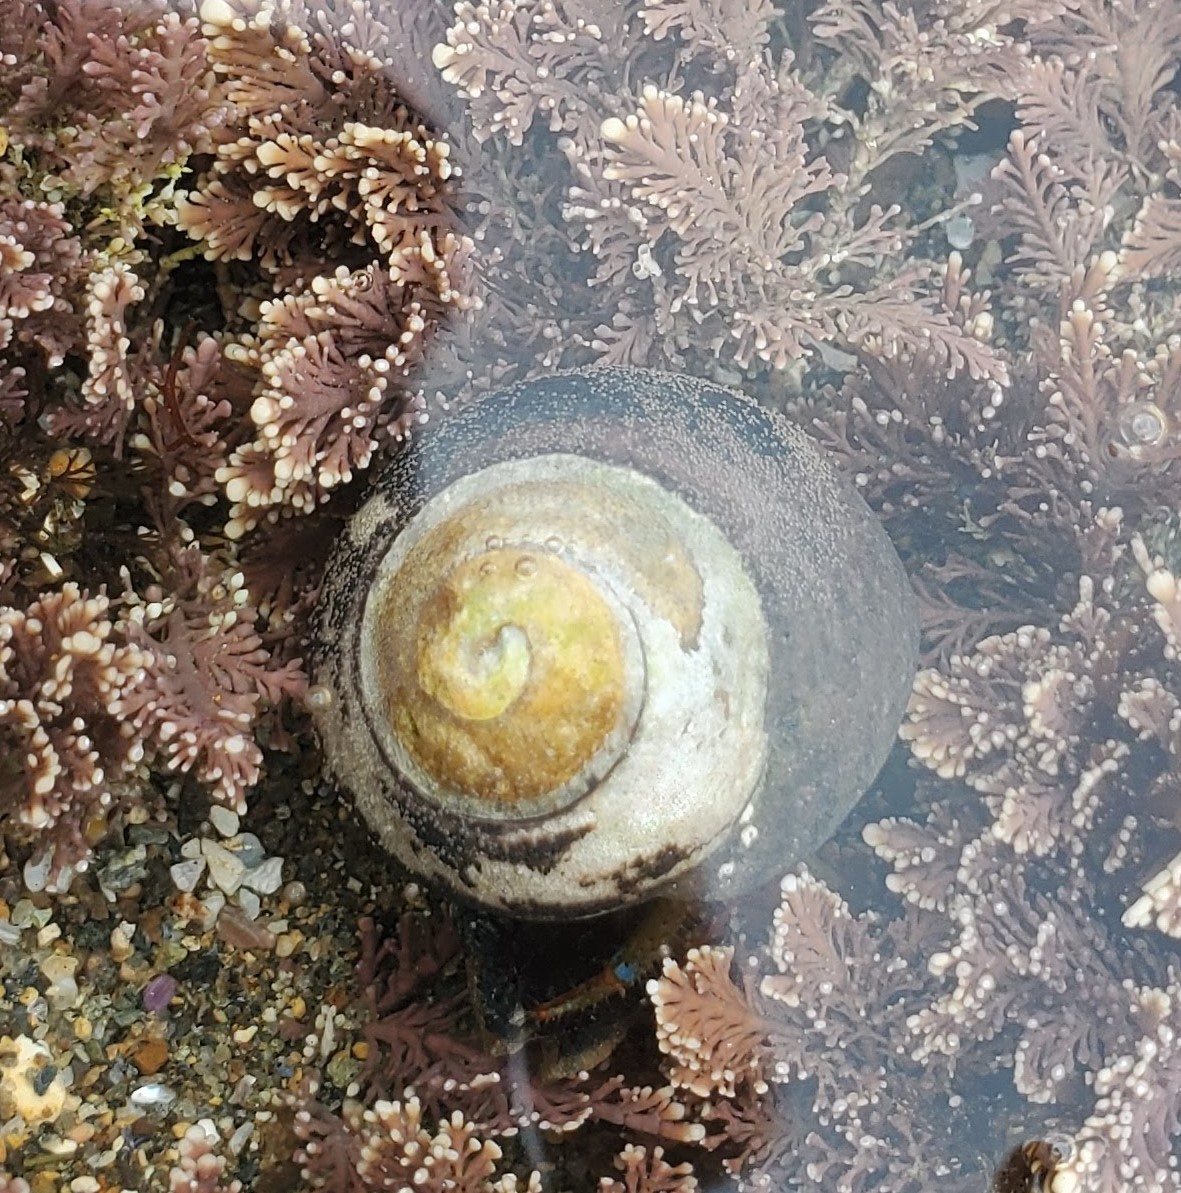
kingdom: Animalia
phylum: Mollusca
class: Gastropoda
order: Trochida
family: Tegulidae
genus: Tegula
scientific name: Tegula funebralis
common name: Black tegula
